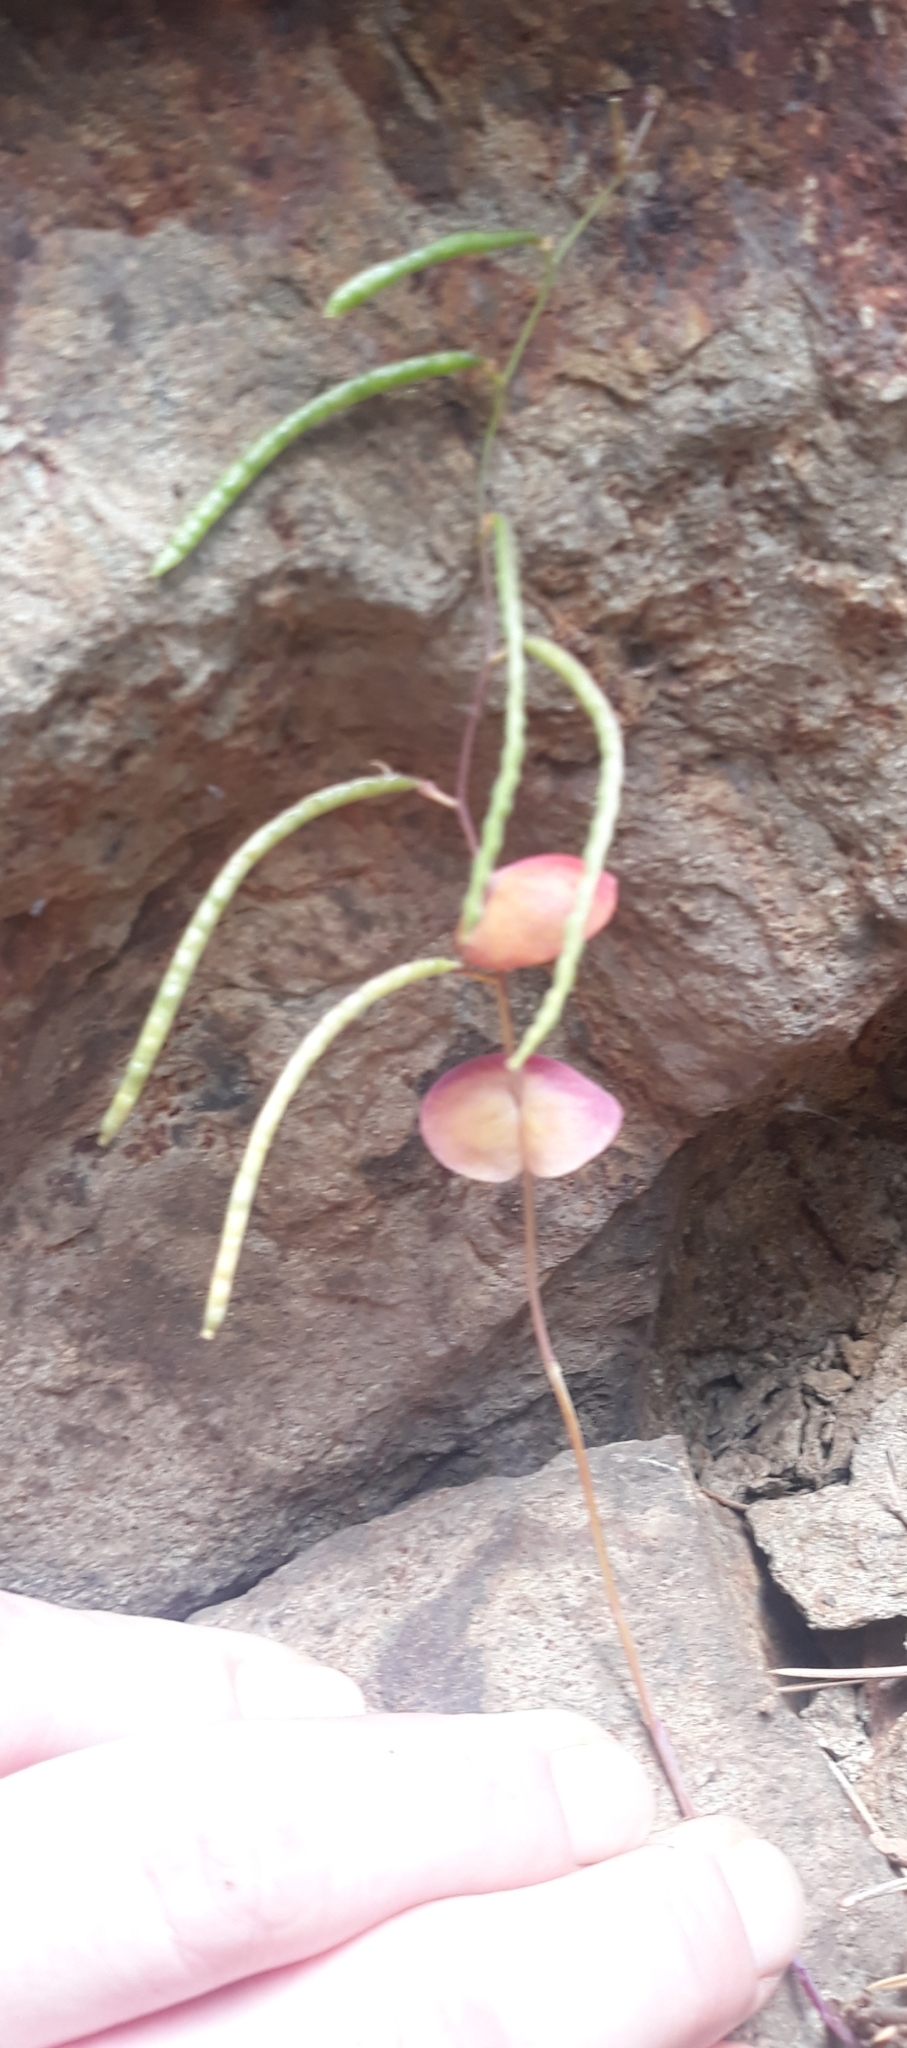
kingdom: Plantae
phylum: Tracheophyta
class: Magnoliopsida
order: Brassicales
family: Brassicaceae
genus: Streptanthus
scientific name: Streptanthus tortuosus
